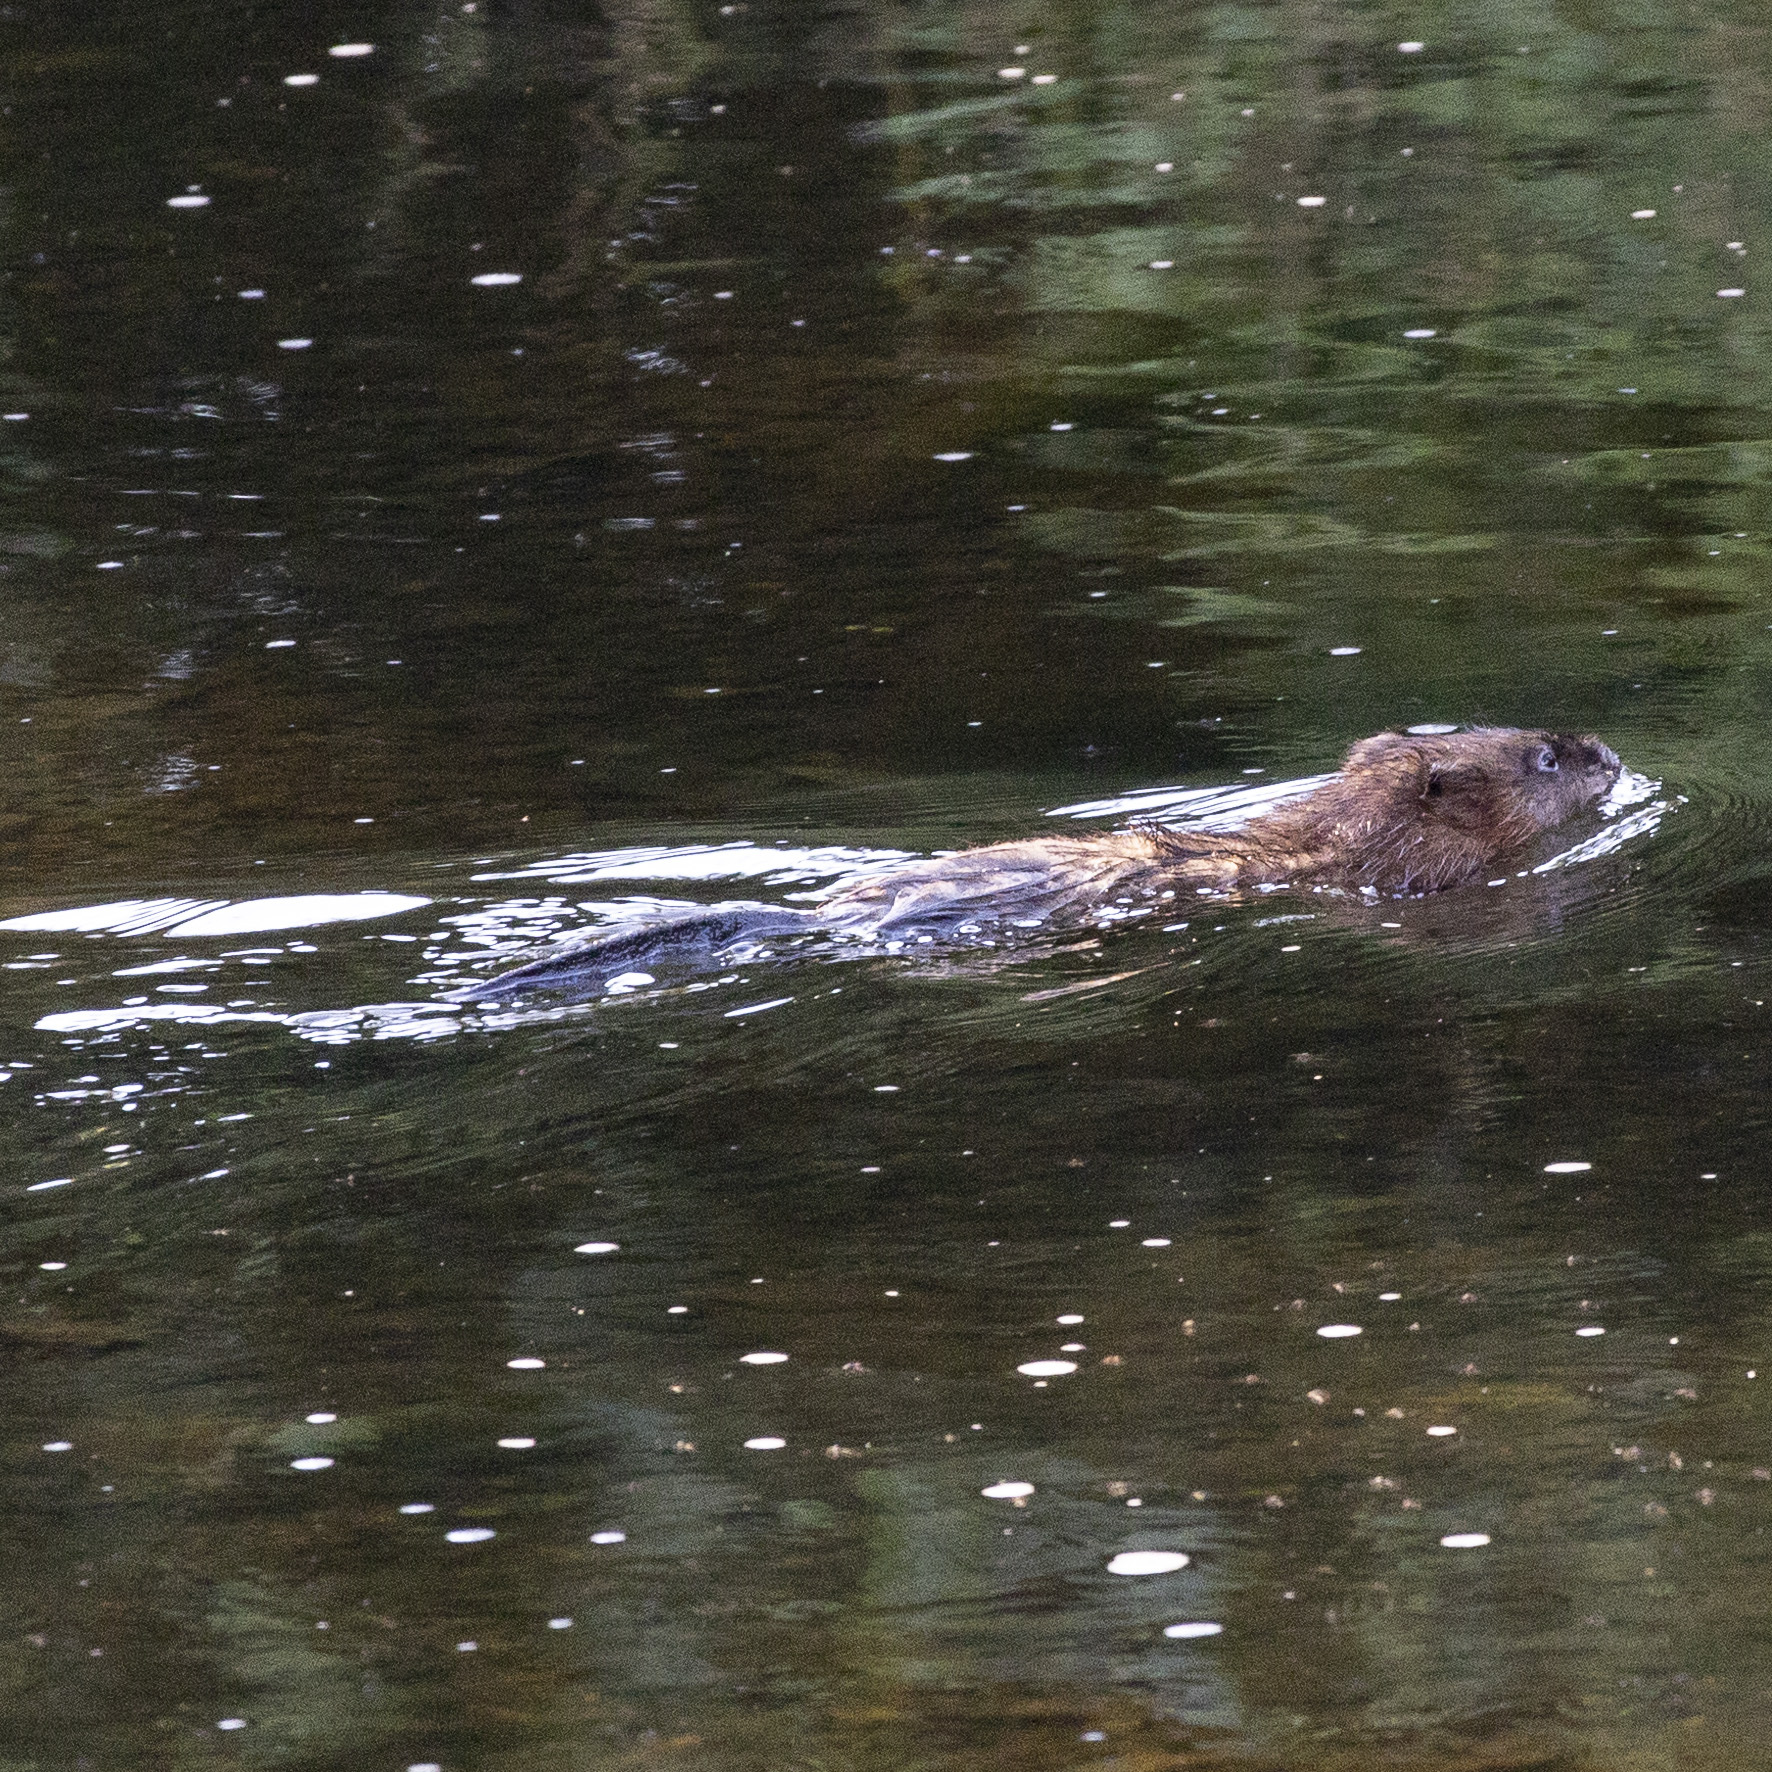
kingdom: Animalia
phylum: Chordata
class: Mammalia
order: Rodentia
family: Cricetidae
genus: Ondatra
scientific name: Ondatra zibethicus
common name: Muskrat
